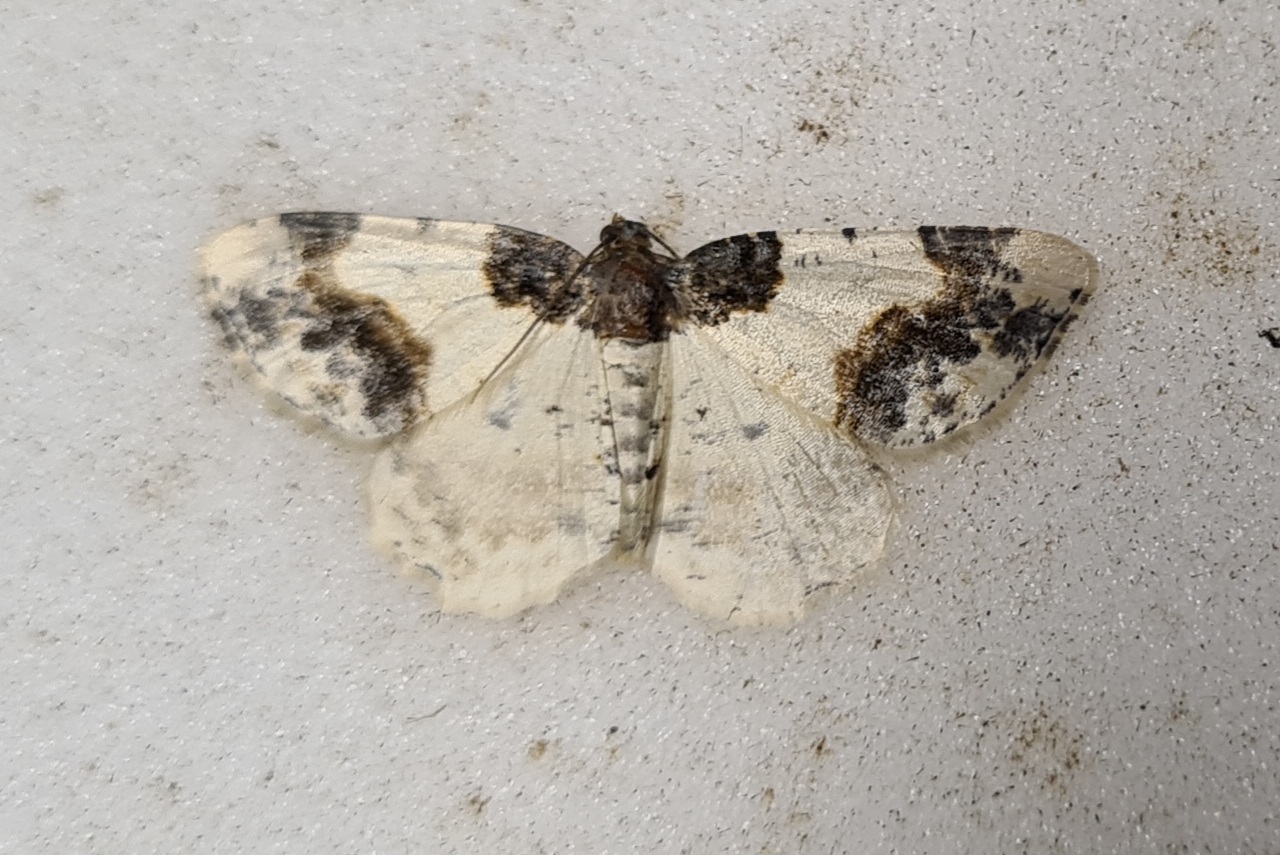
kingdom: Animalia
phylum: Arthropoda
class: Insecta
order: Lepidoptera
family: Geometridae
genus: Ligdia
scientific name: Ligdia adustata
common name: Scorched carpet
